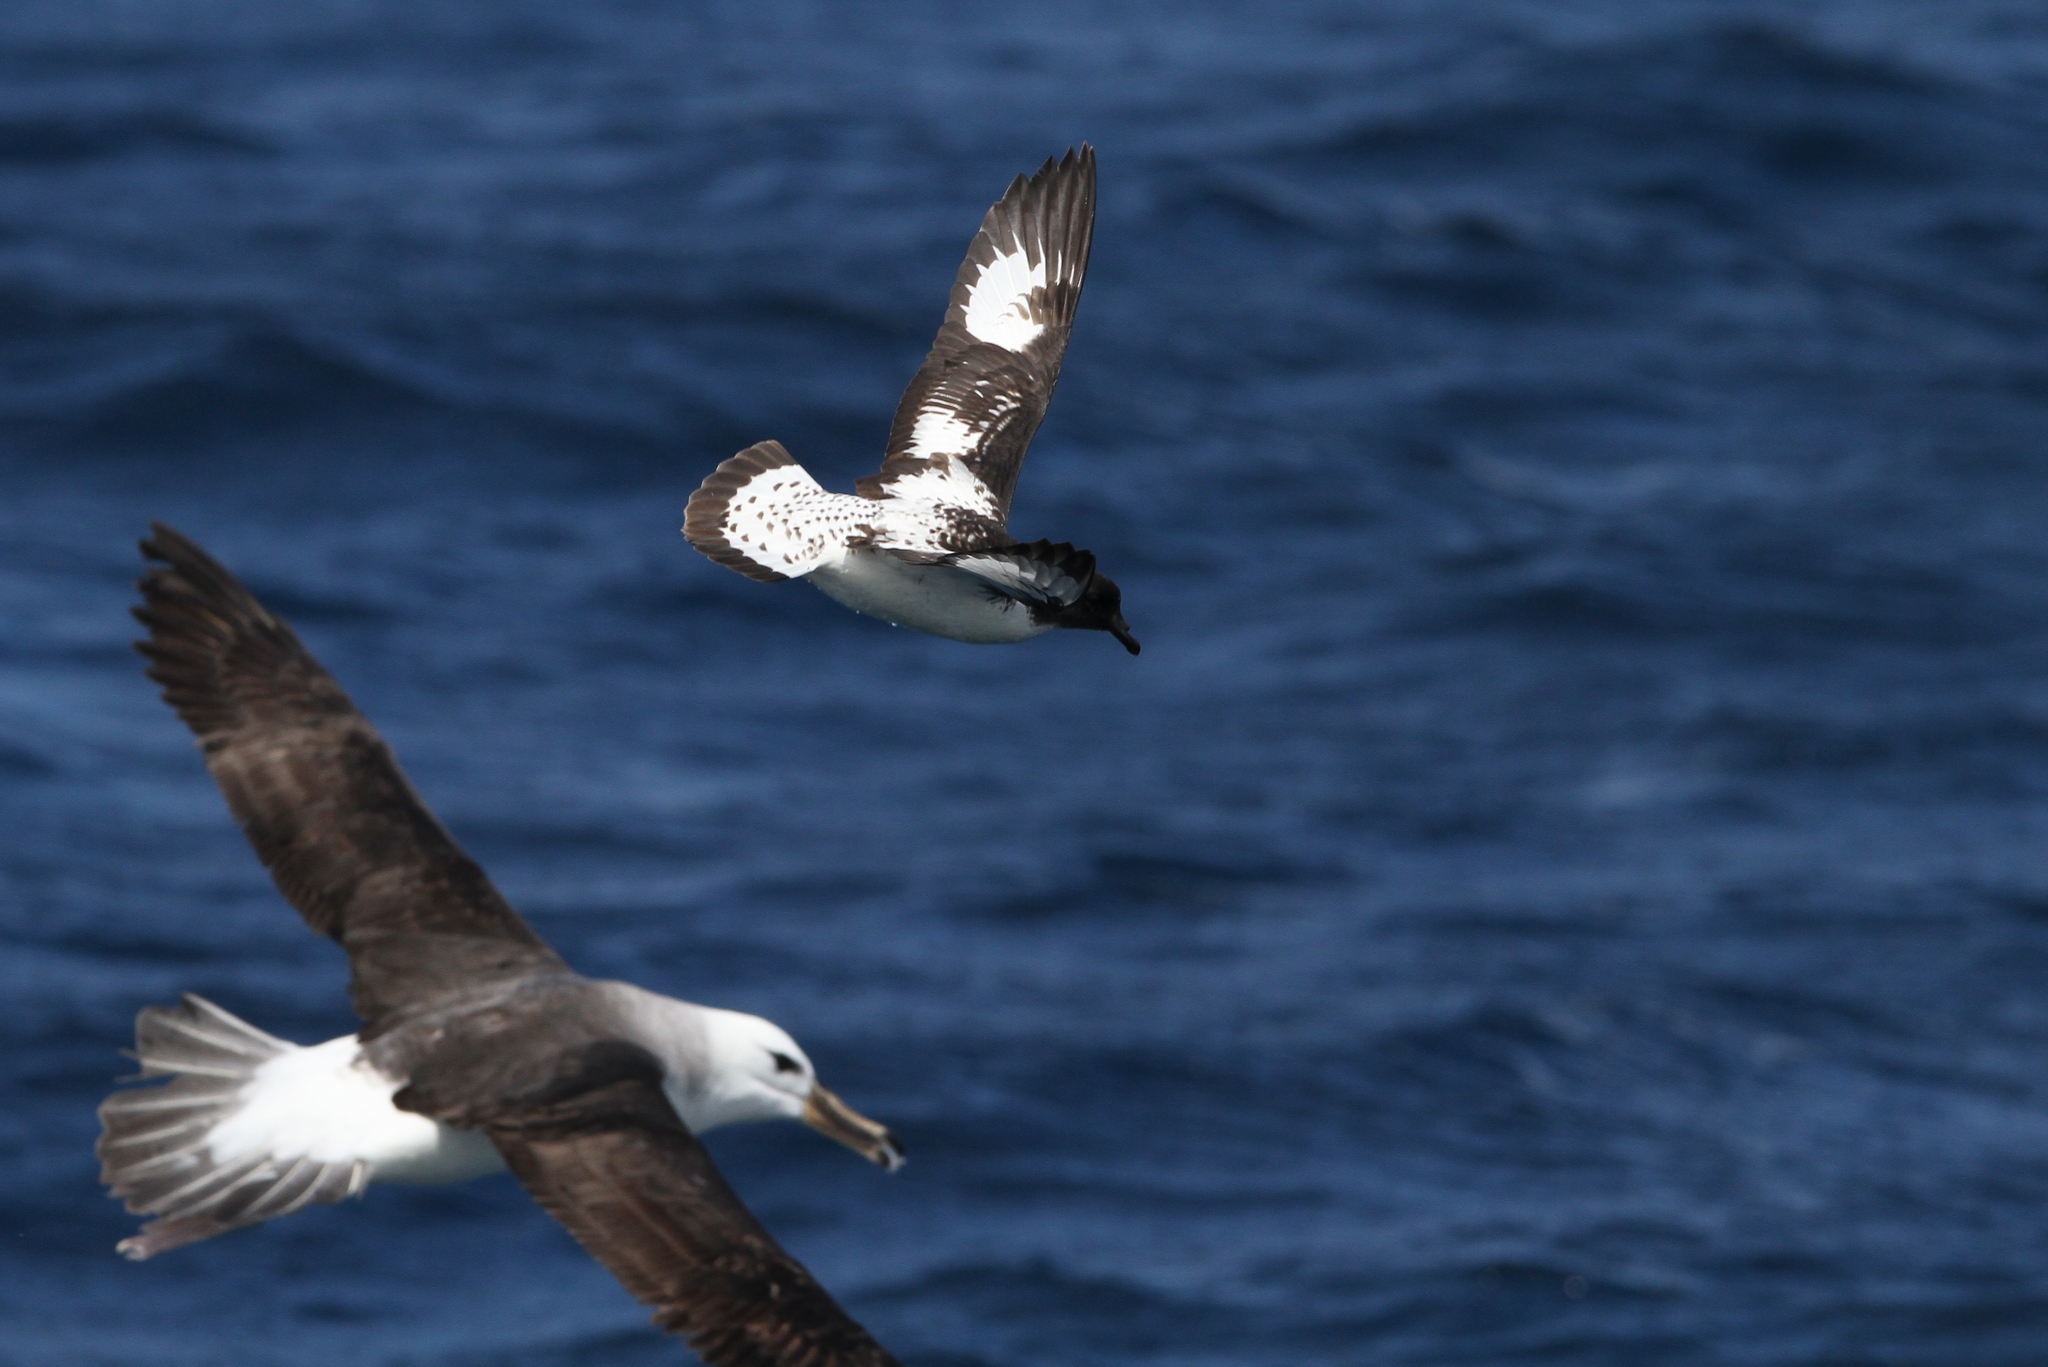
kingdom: Animalia
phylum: Chordata
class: Aves
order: Procellariiformes
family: Procellariidae
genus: Daption
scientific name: Daption capense
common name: Cape petrel
